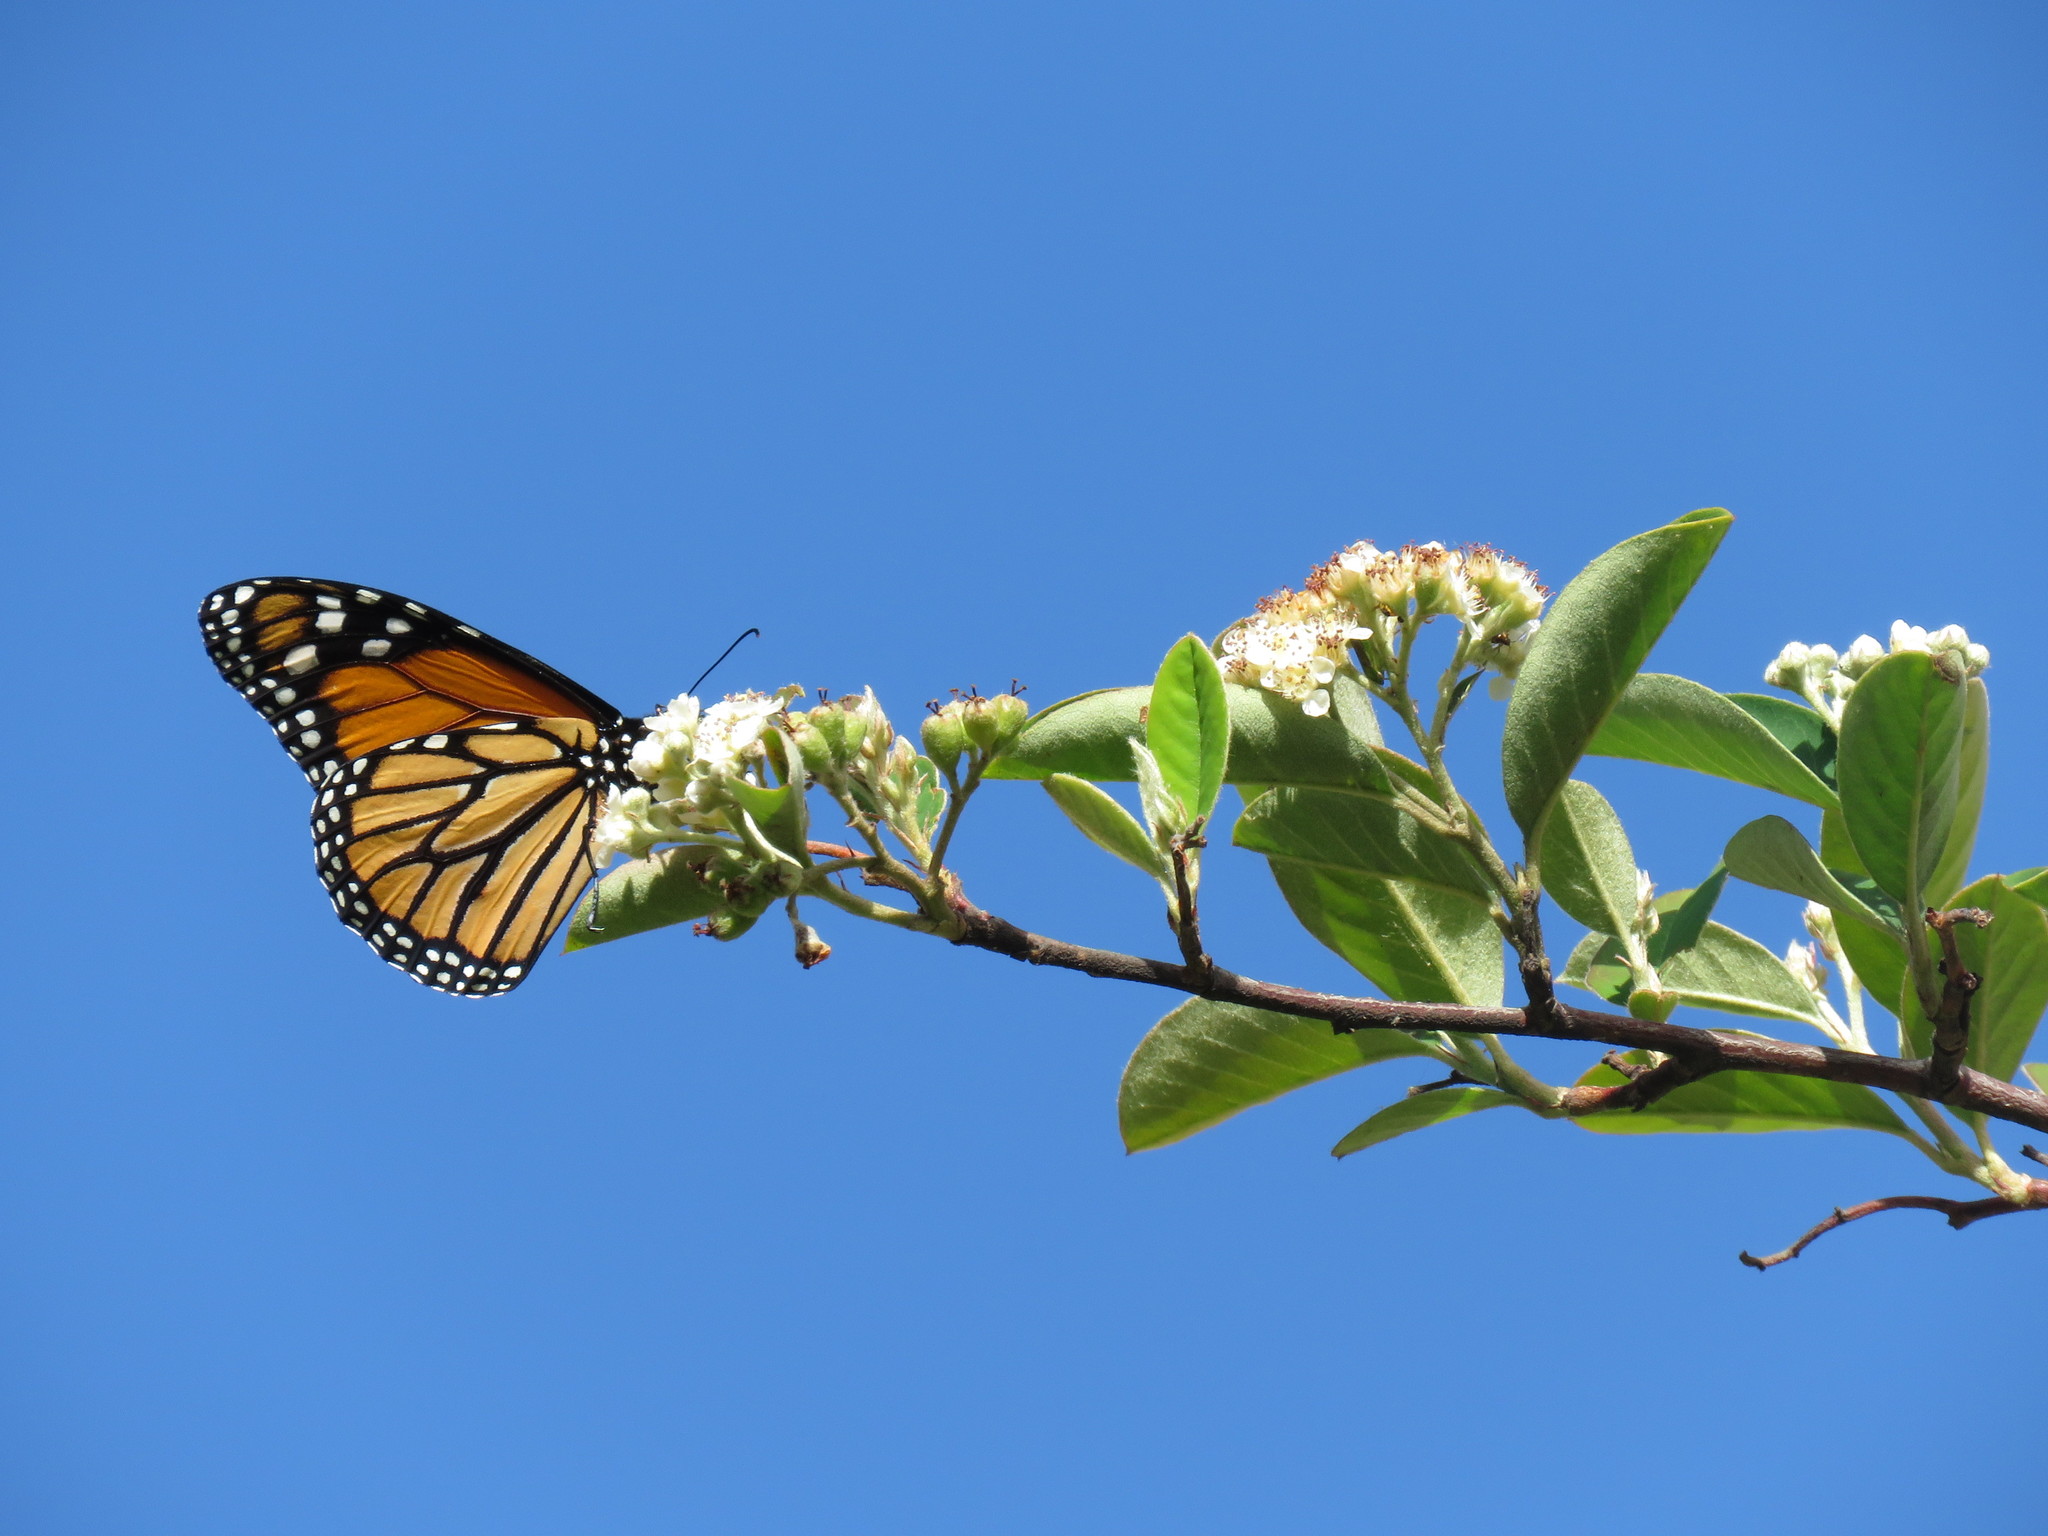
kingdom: Animalia
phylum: Arthropoda
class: Insecta
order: Lepidoptera
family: Nymphalidae
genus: Danaus
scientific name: Danaus plexippus
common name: Monarch
